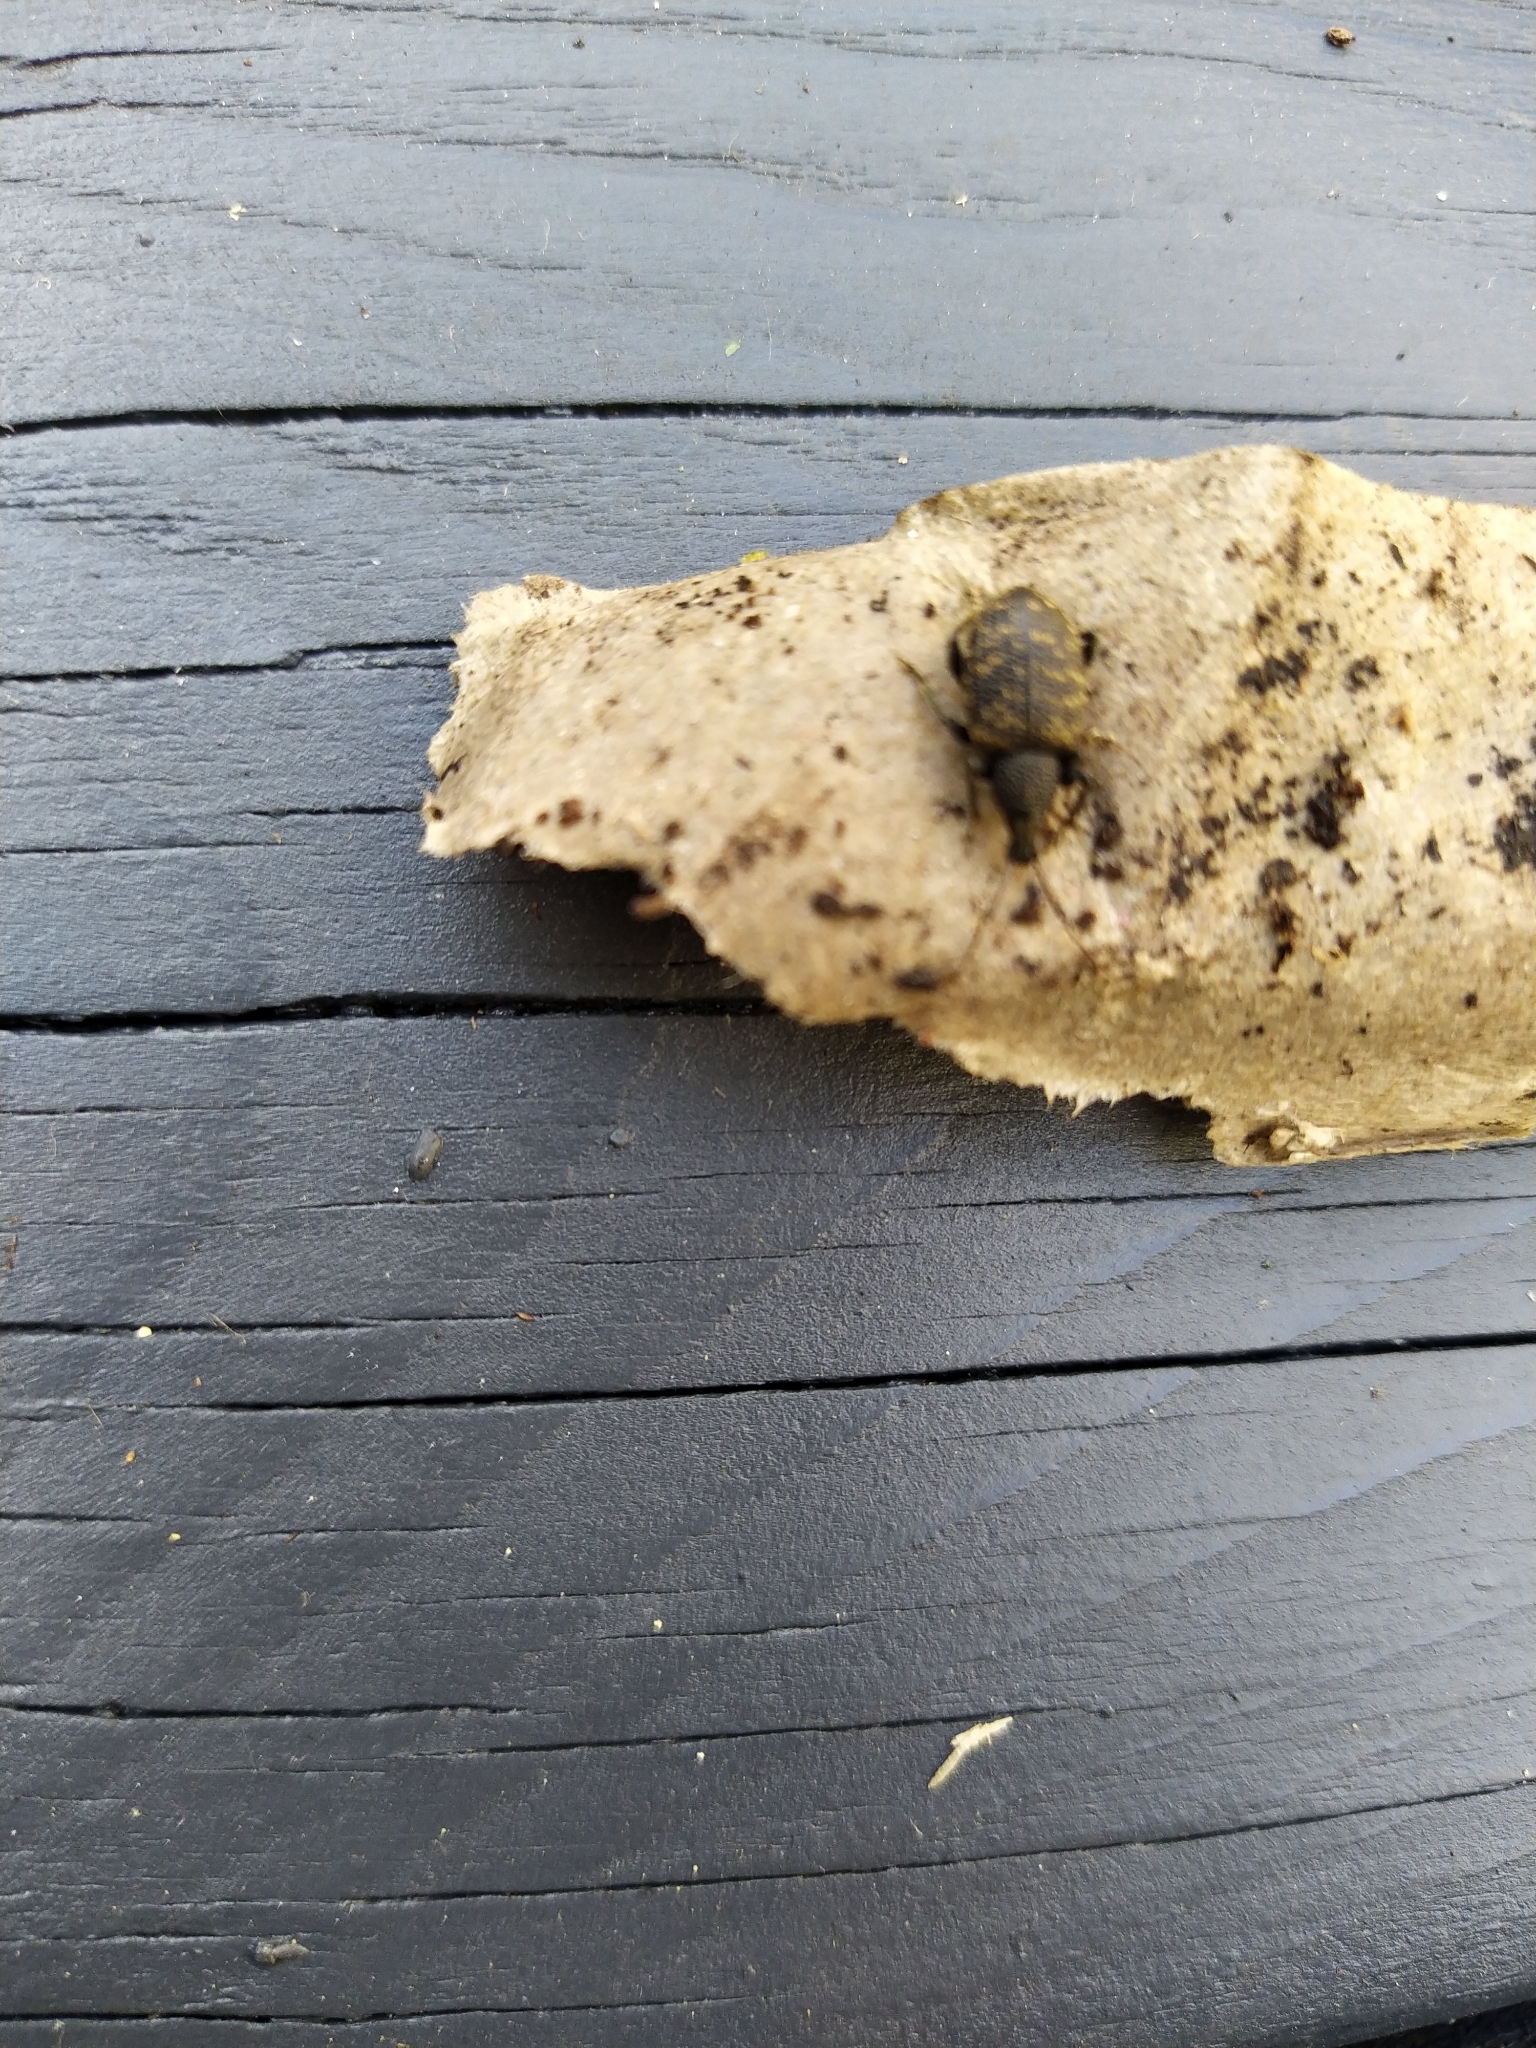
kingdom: Animalia
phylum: Arthropoda
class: Insecta
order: Coleoptera
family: Curculionidae
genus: Otiorhynchus
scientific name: Otiorhynchus sulcatus
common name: Black vine weevil
